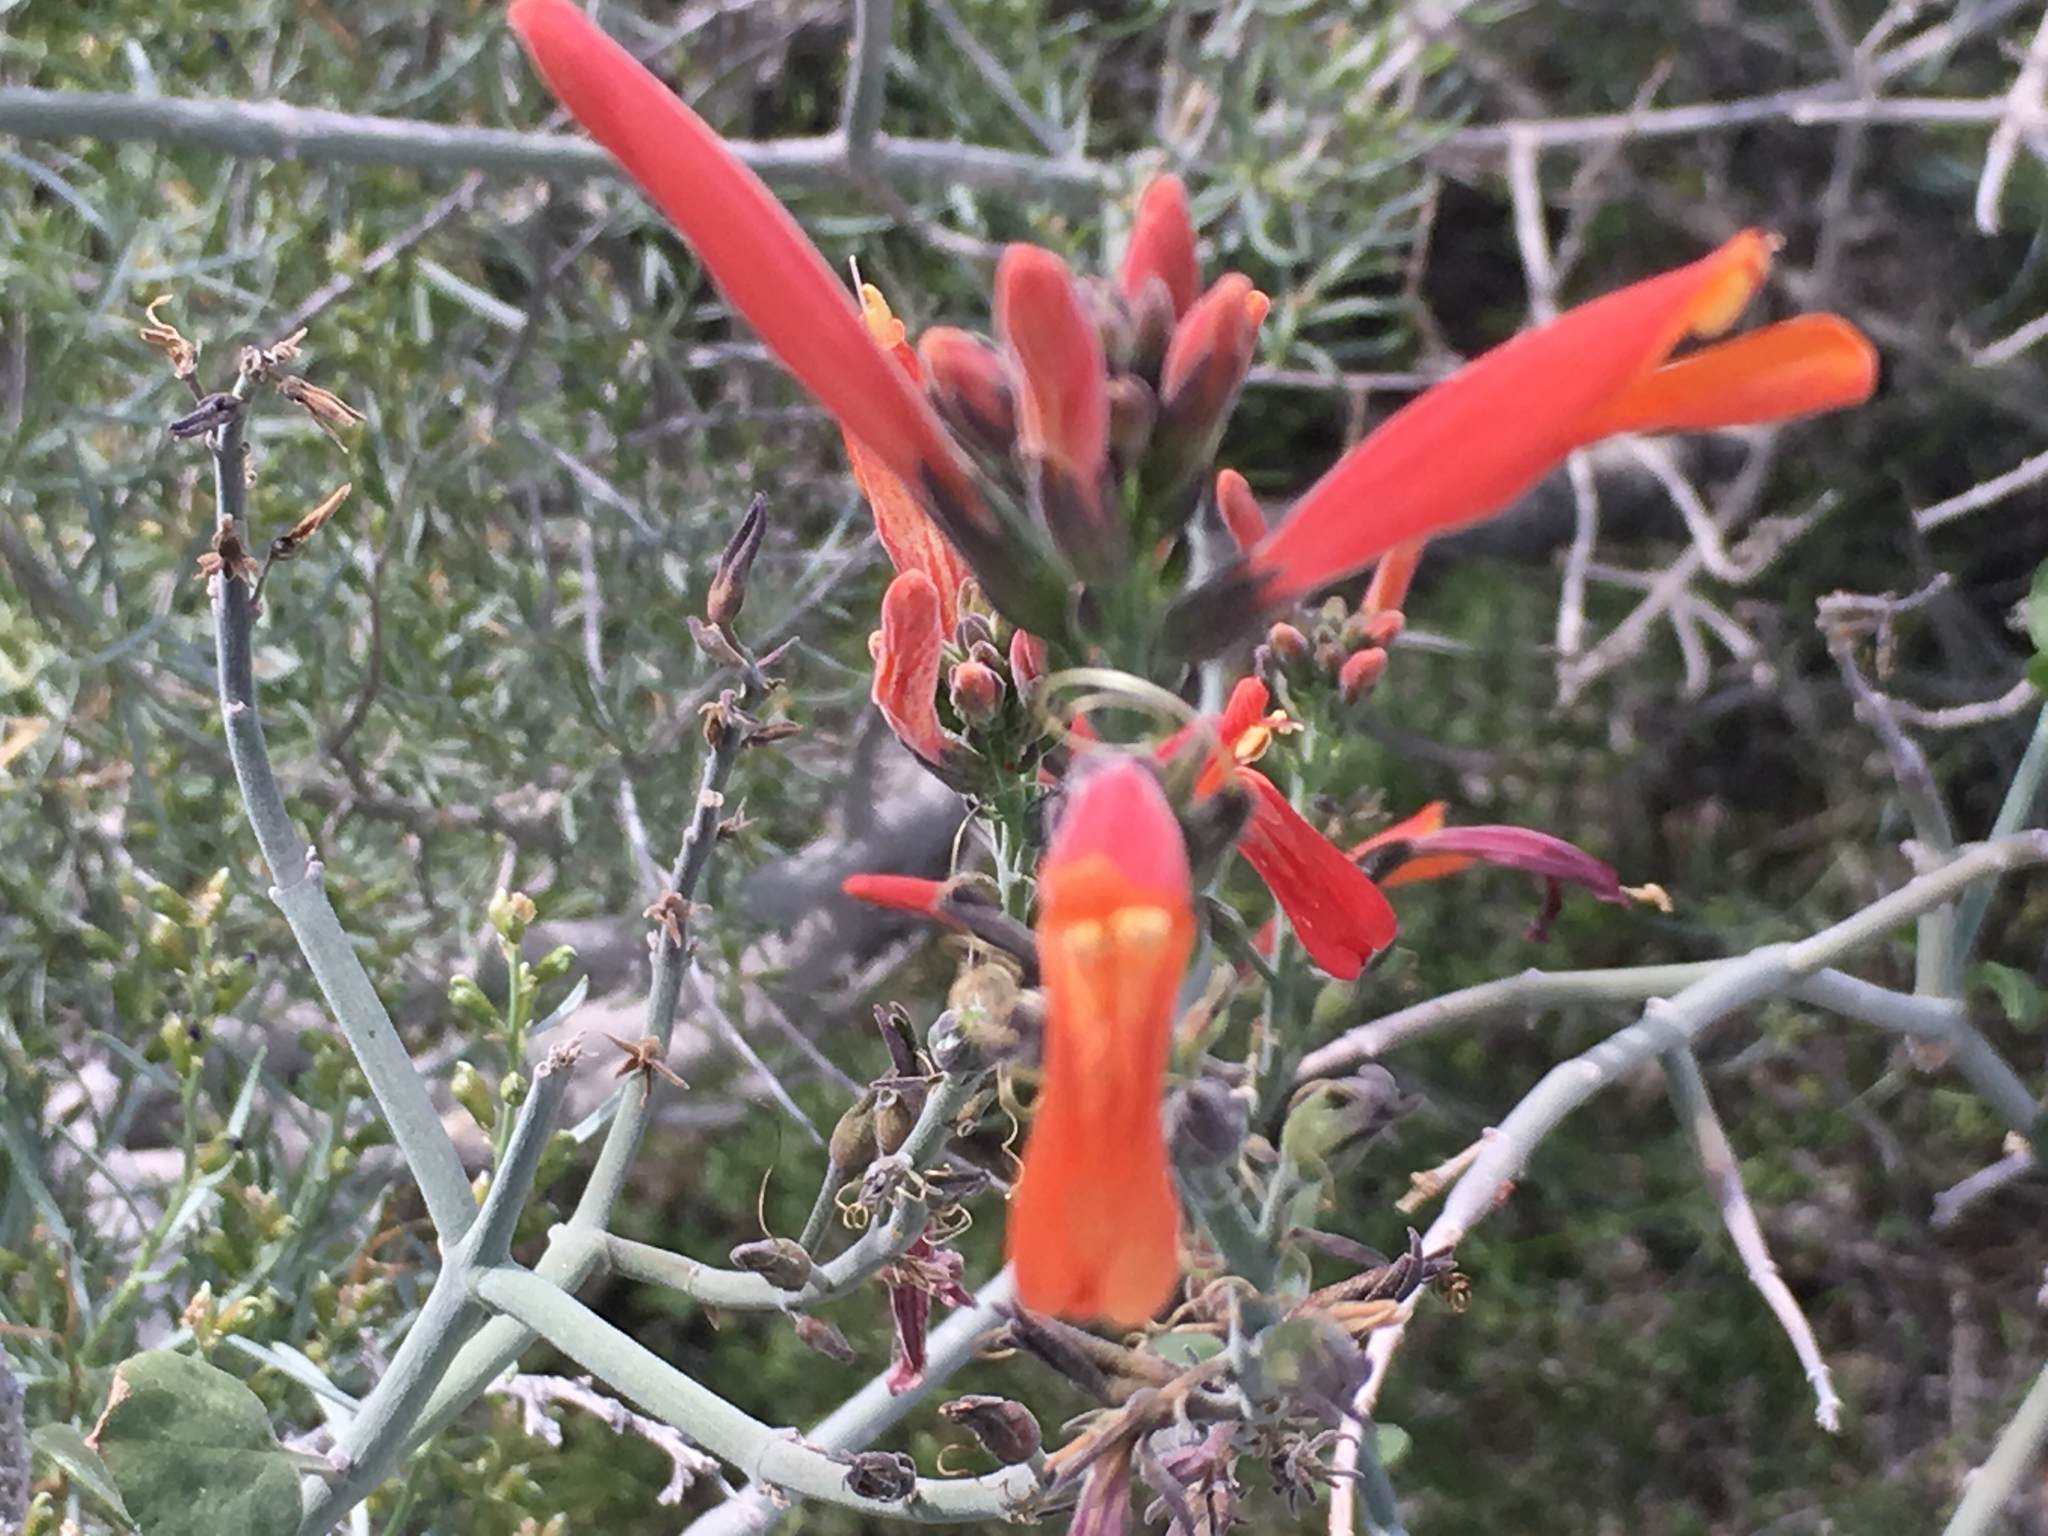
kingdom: Plantae
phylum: Tracheophyta
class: Magnoliopsida
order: Lamiales
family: Acanthaceae
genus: Justicia
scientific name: Justicia californica
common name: Chuparosa-honeysuckle
